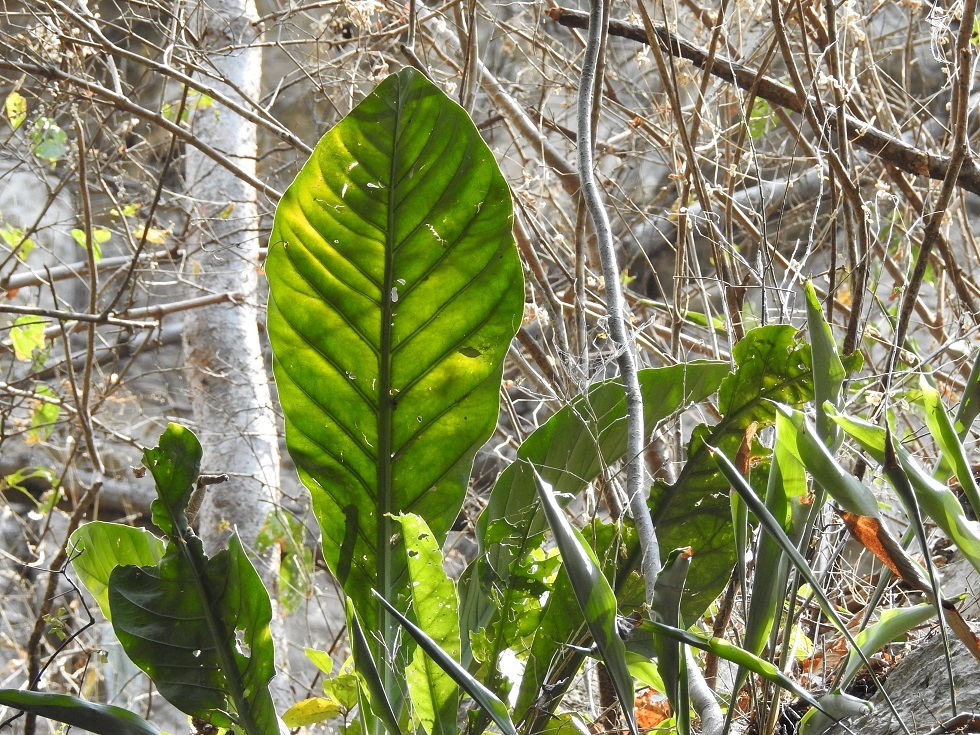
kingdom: Plantae
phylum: Tracheophyta
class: Liliopsida
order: Alismatales
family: Araceae
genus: Anthurium
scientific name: Anthurium schlechtendalii
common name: Laceleaf
